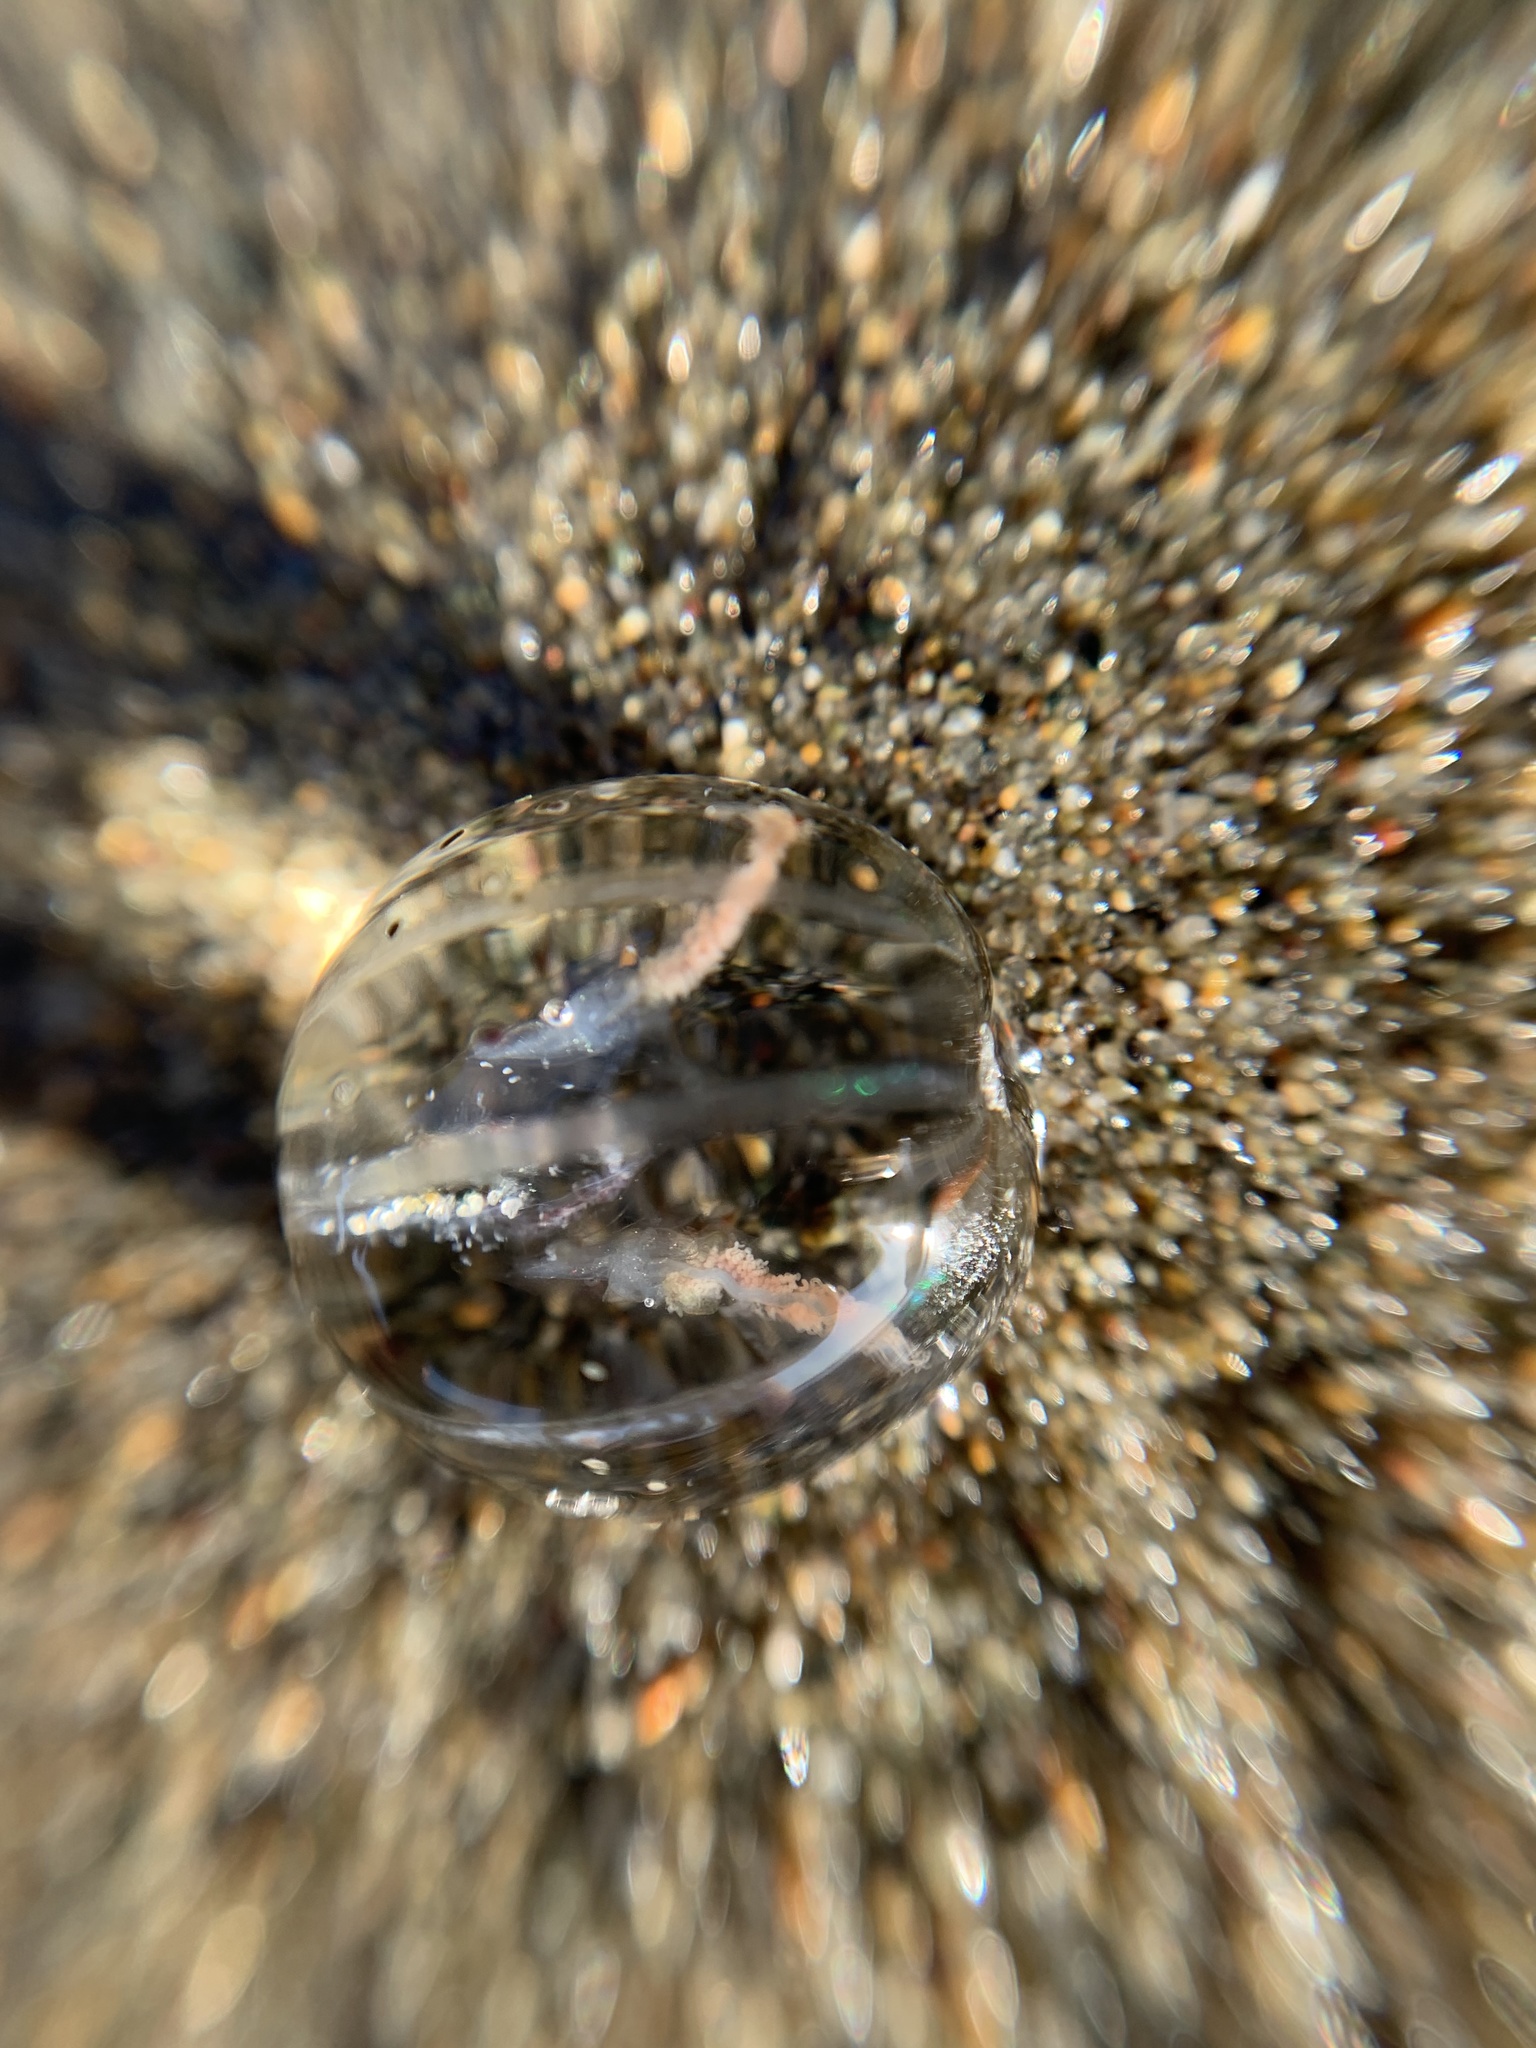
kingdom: Animalia
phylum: Ctenophora
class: Tentaculata
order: Cydippida
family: Pleurobrachiidae
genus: Pleurobrachia
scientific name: Pleurobrachia bachei
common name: Pacific sea gooseberry
